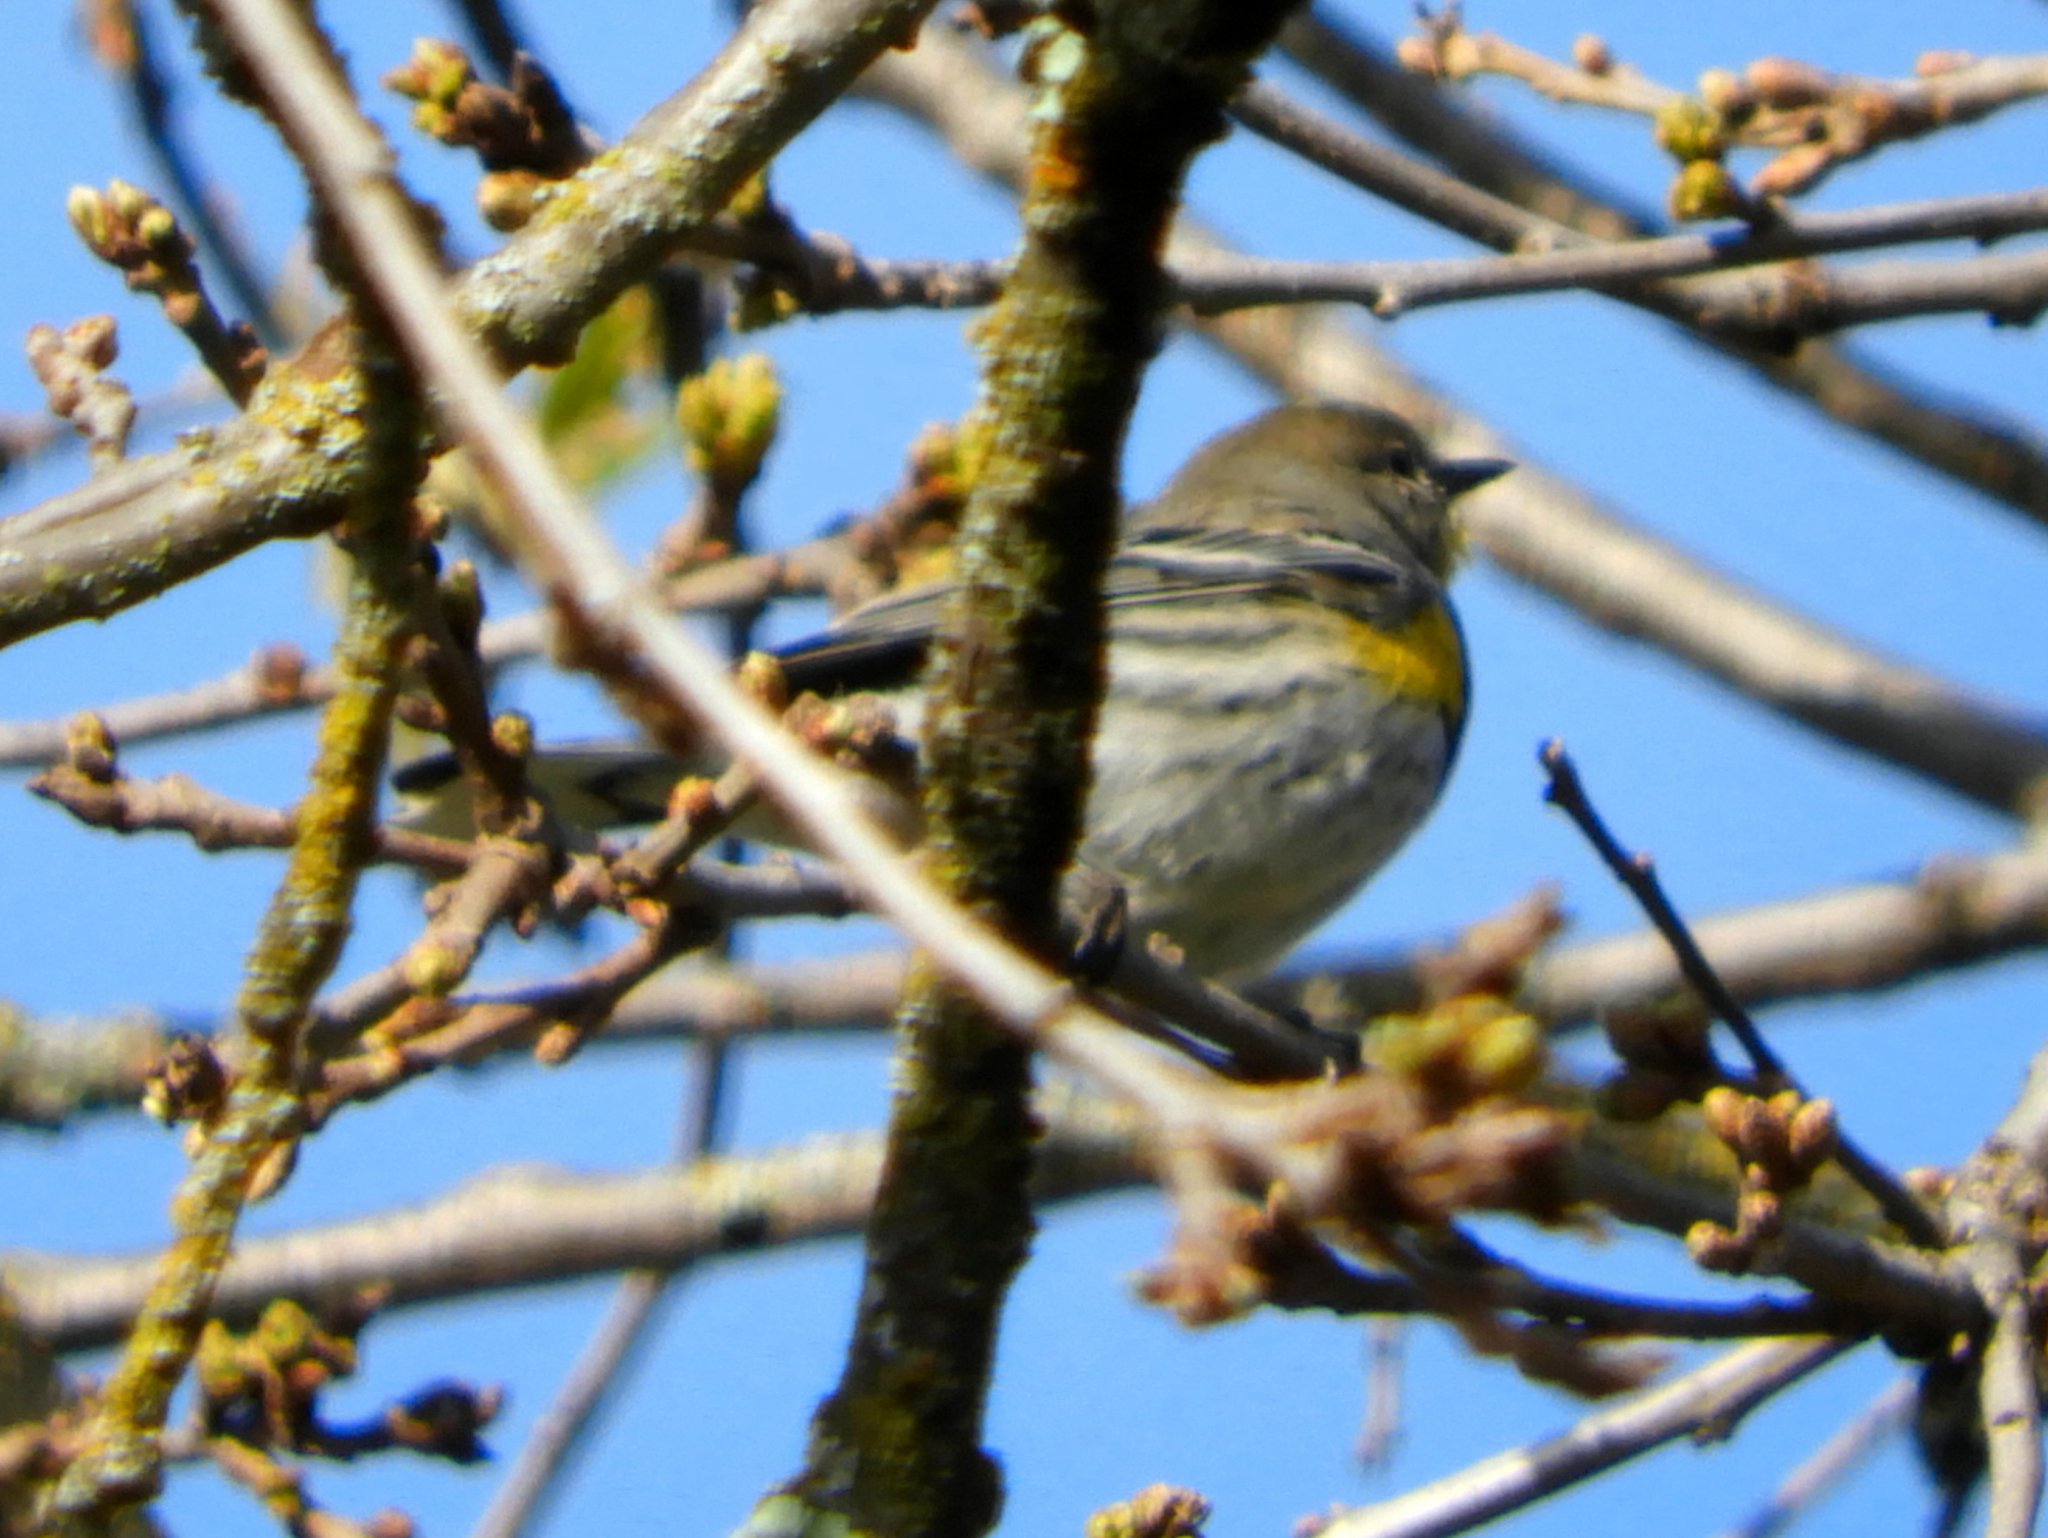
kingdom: Animalia
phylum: Chordata
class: Aves
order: Passeriformes
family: Parulidae
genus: Setophaga
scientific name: Setophaga coronata
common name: Myrtle warbler
